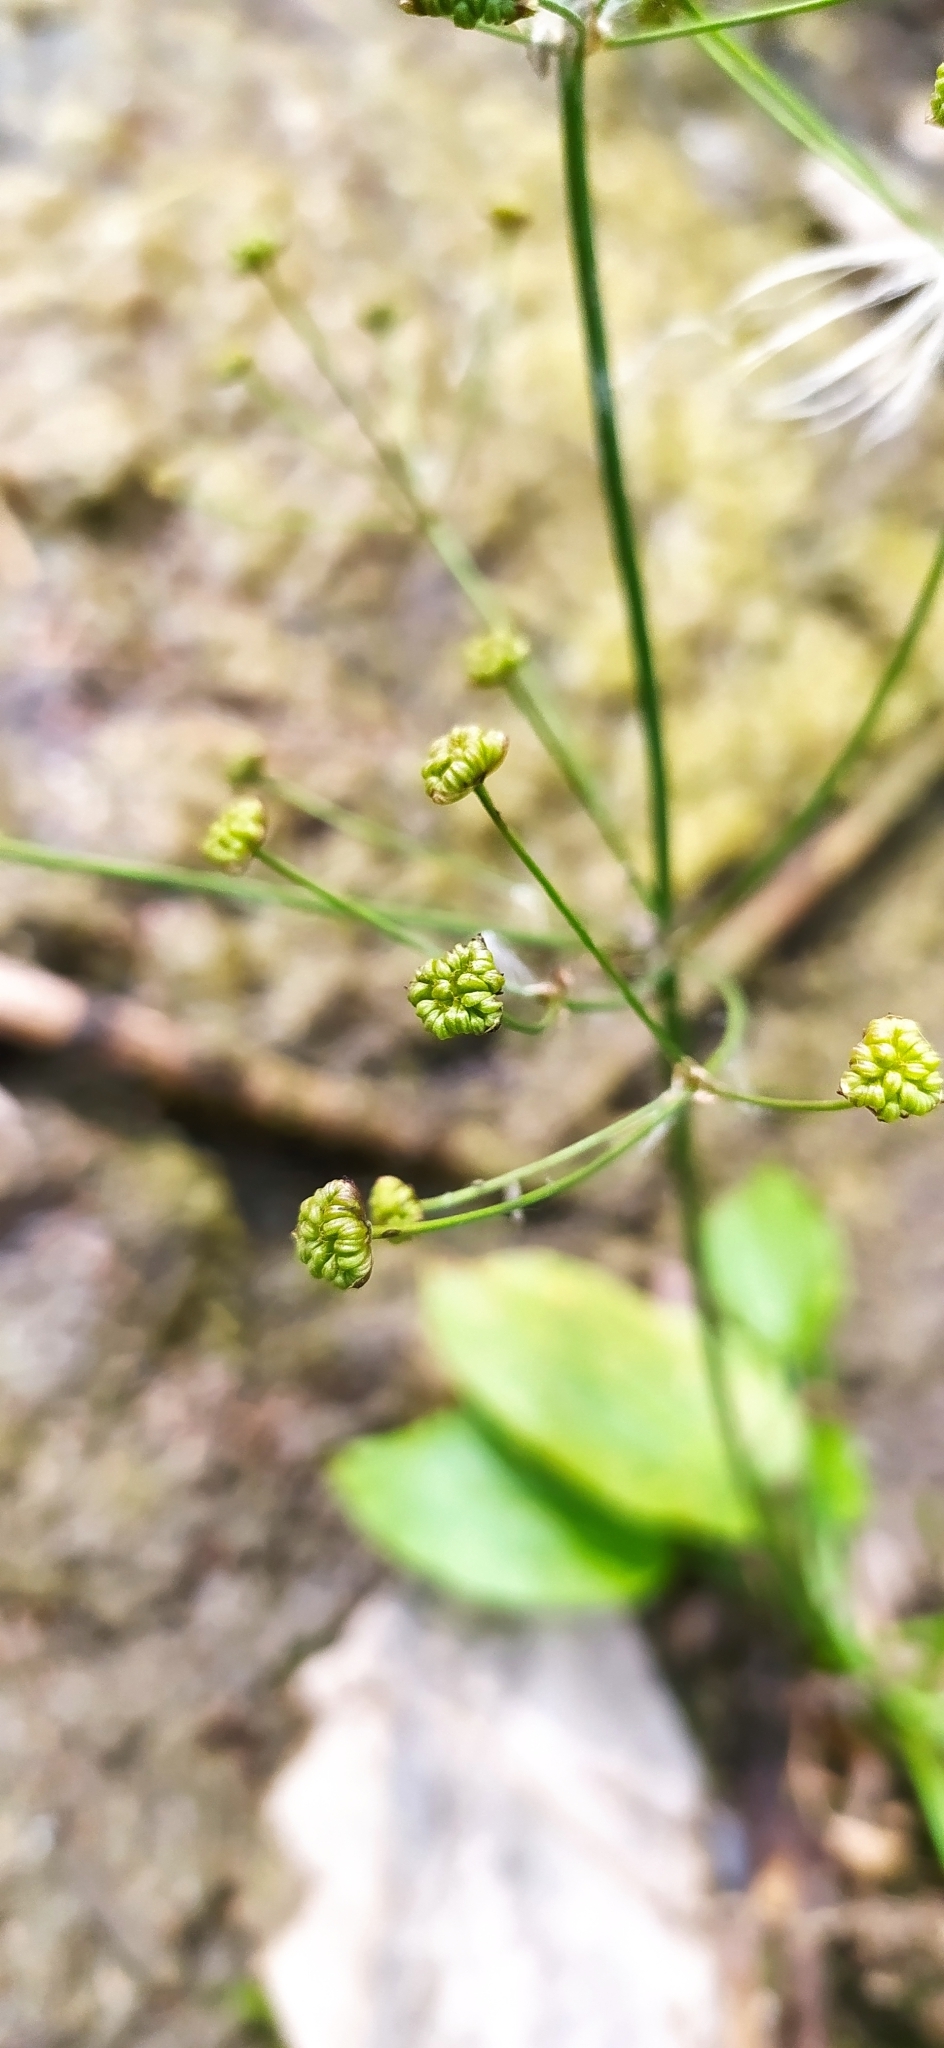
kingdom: Plantae
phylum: Tracheophyta
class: Liliopsida
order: Alismatales
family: Alismataceae
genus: Alisma
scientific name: Alisma plantago-aquatica
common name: Water-plantain
